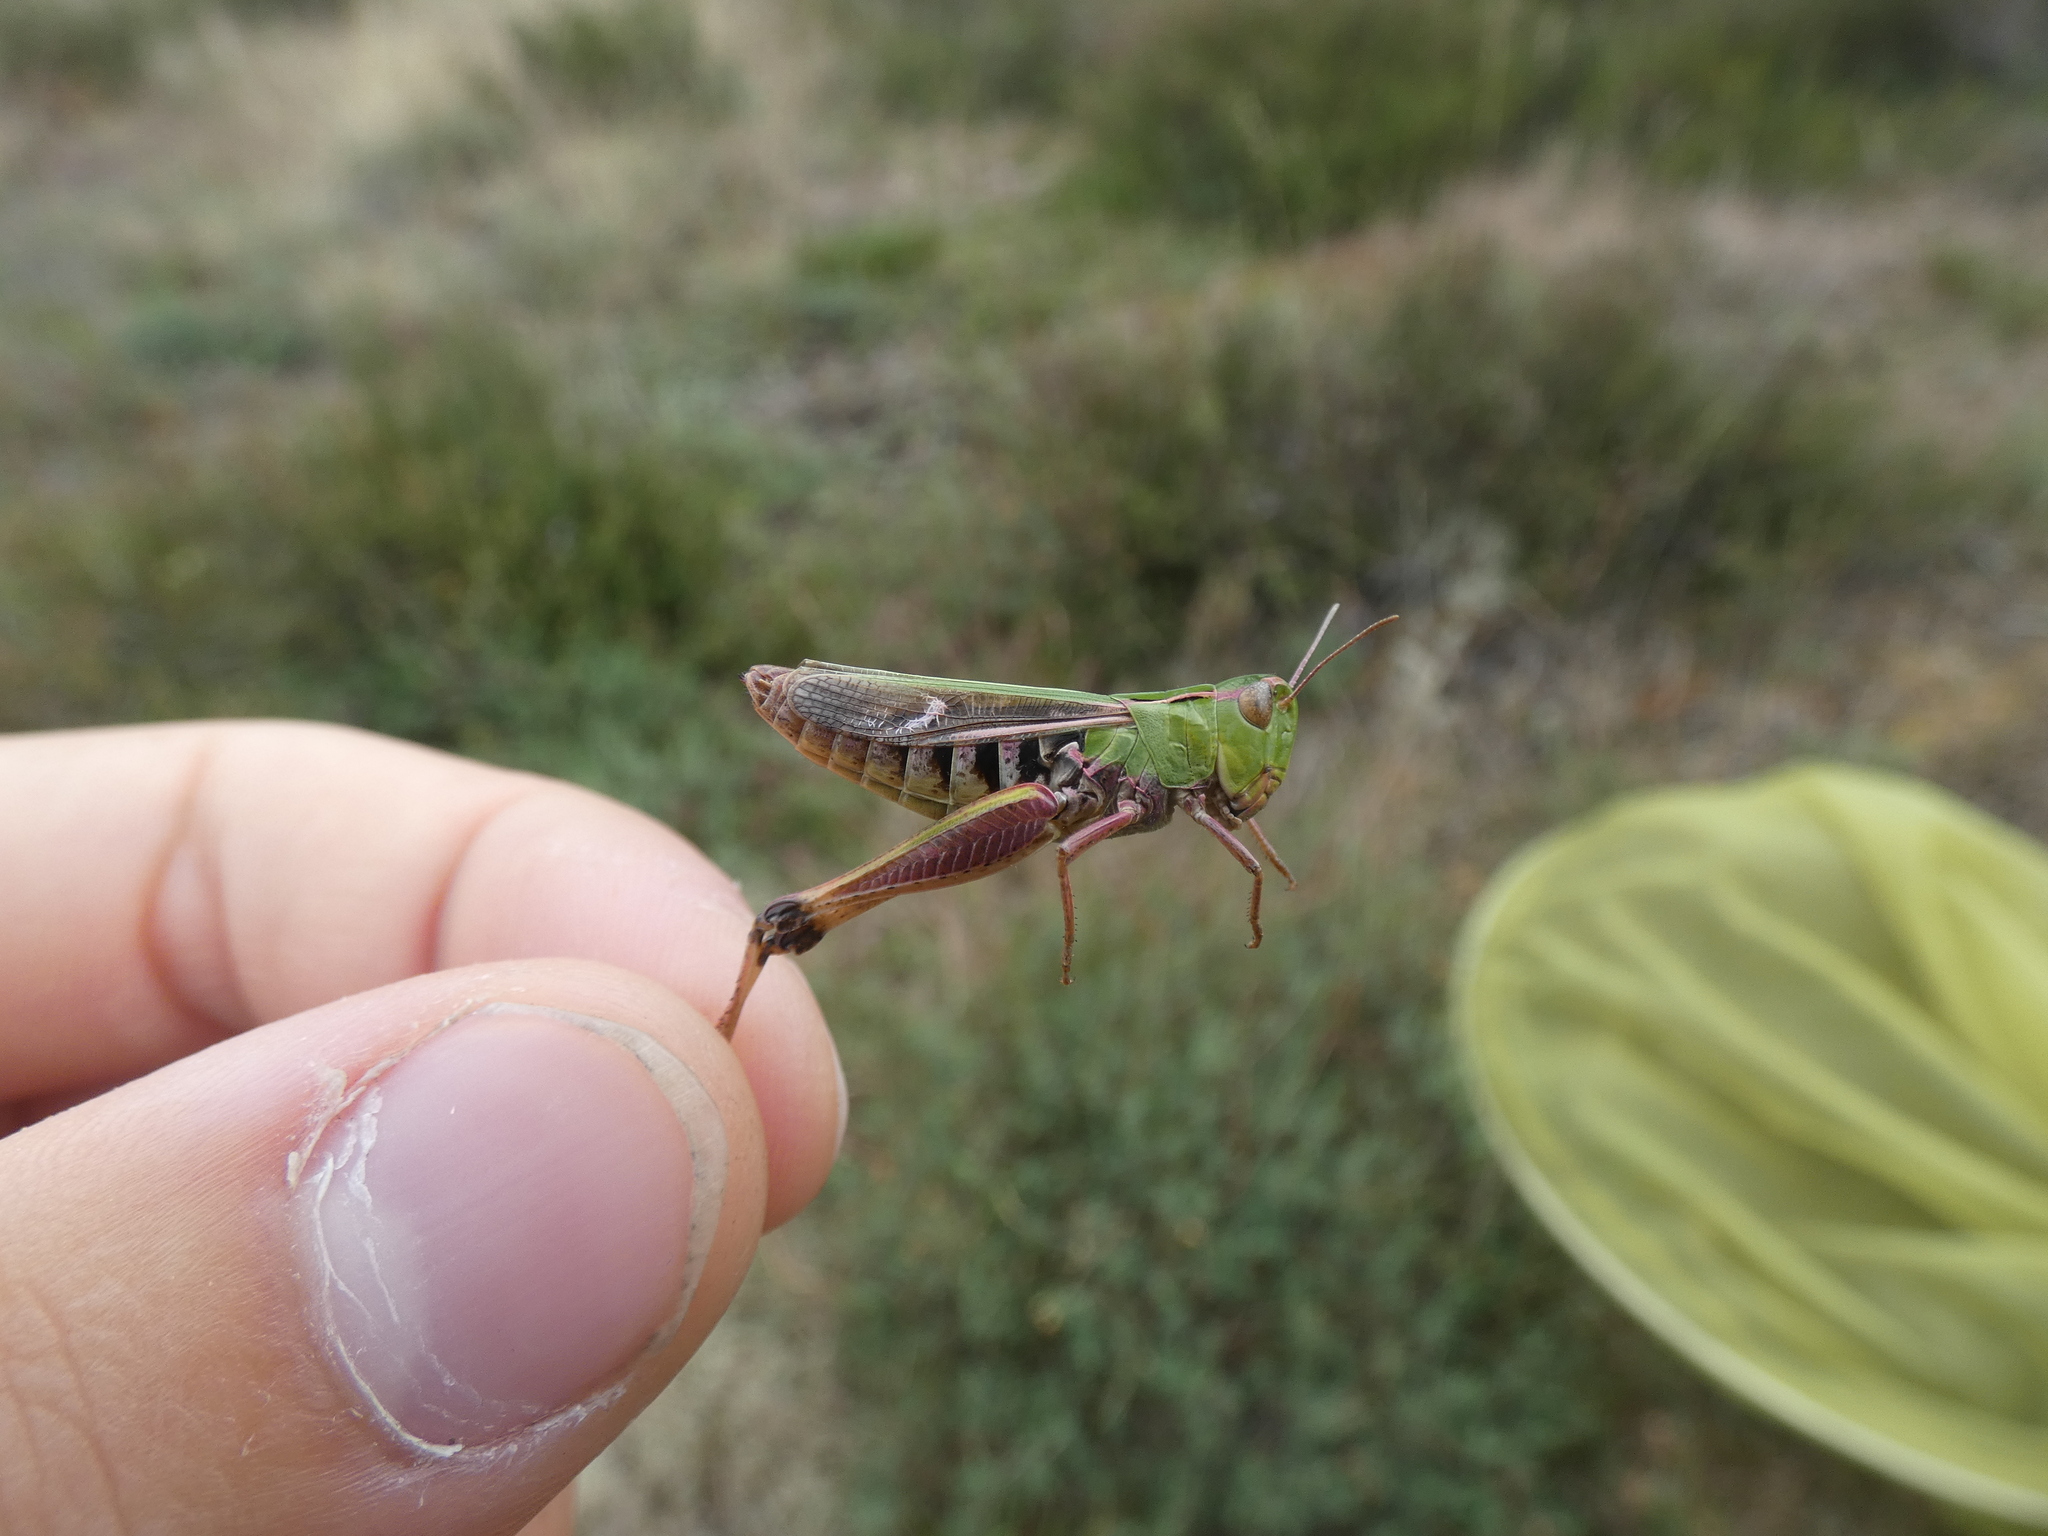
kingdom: Animalia
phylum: Arthropoda
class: Insecta
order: Orthoptera
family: Acrididae
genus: Stenobothrus
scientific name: Stenobothrus lineatus
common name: Stripe-winged grasshopper
